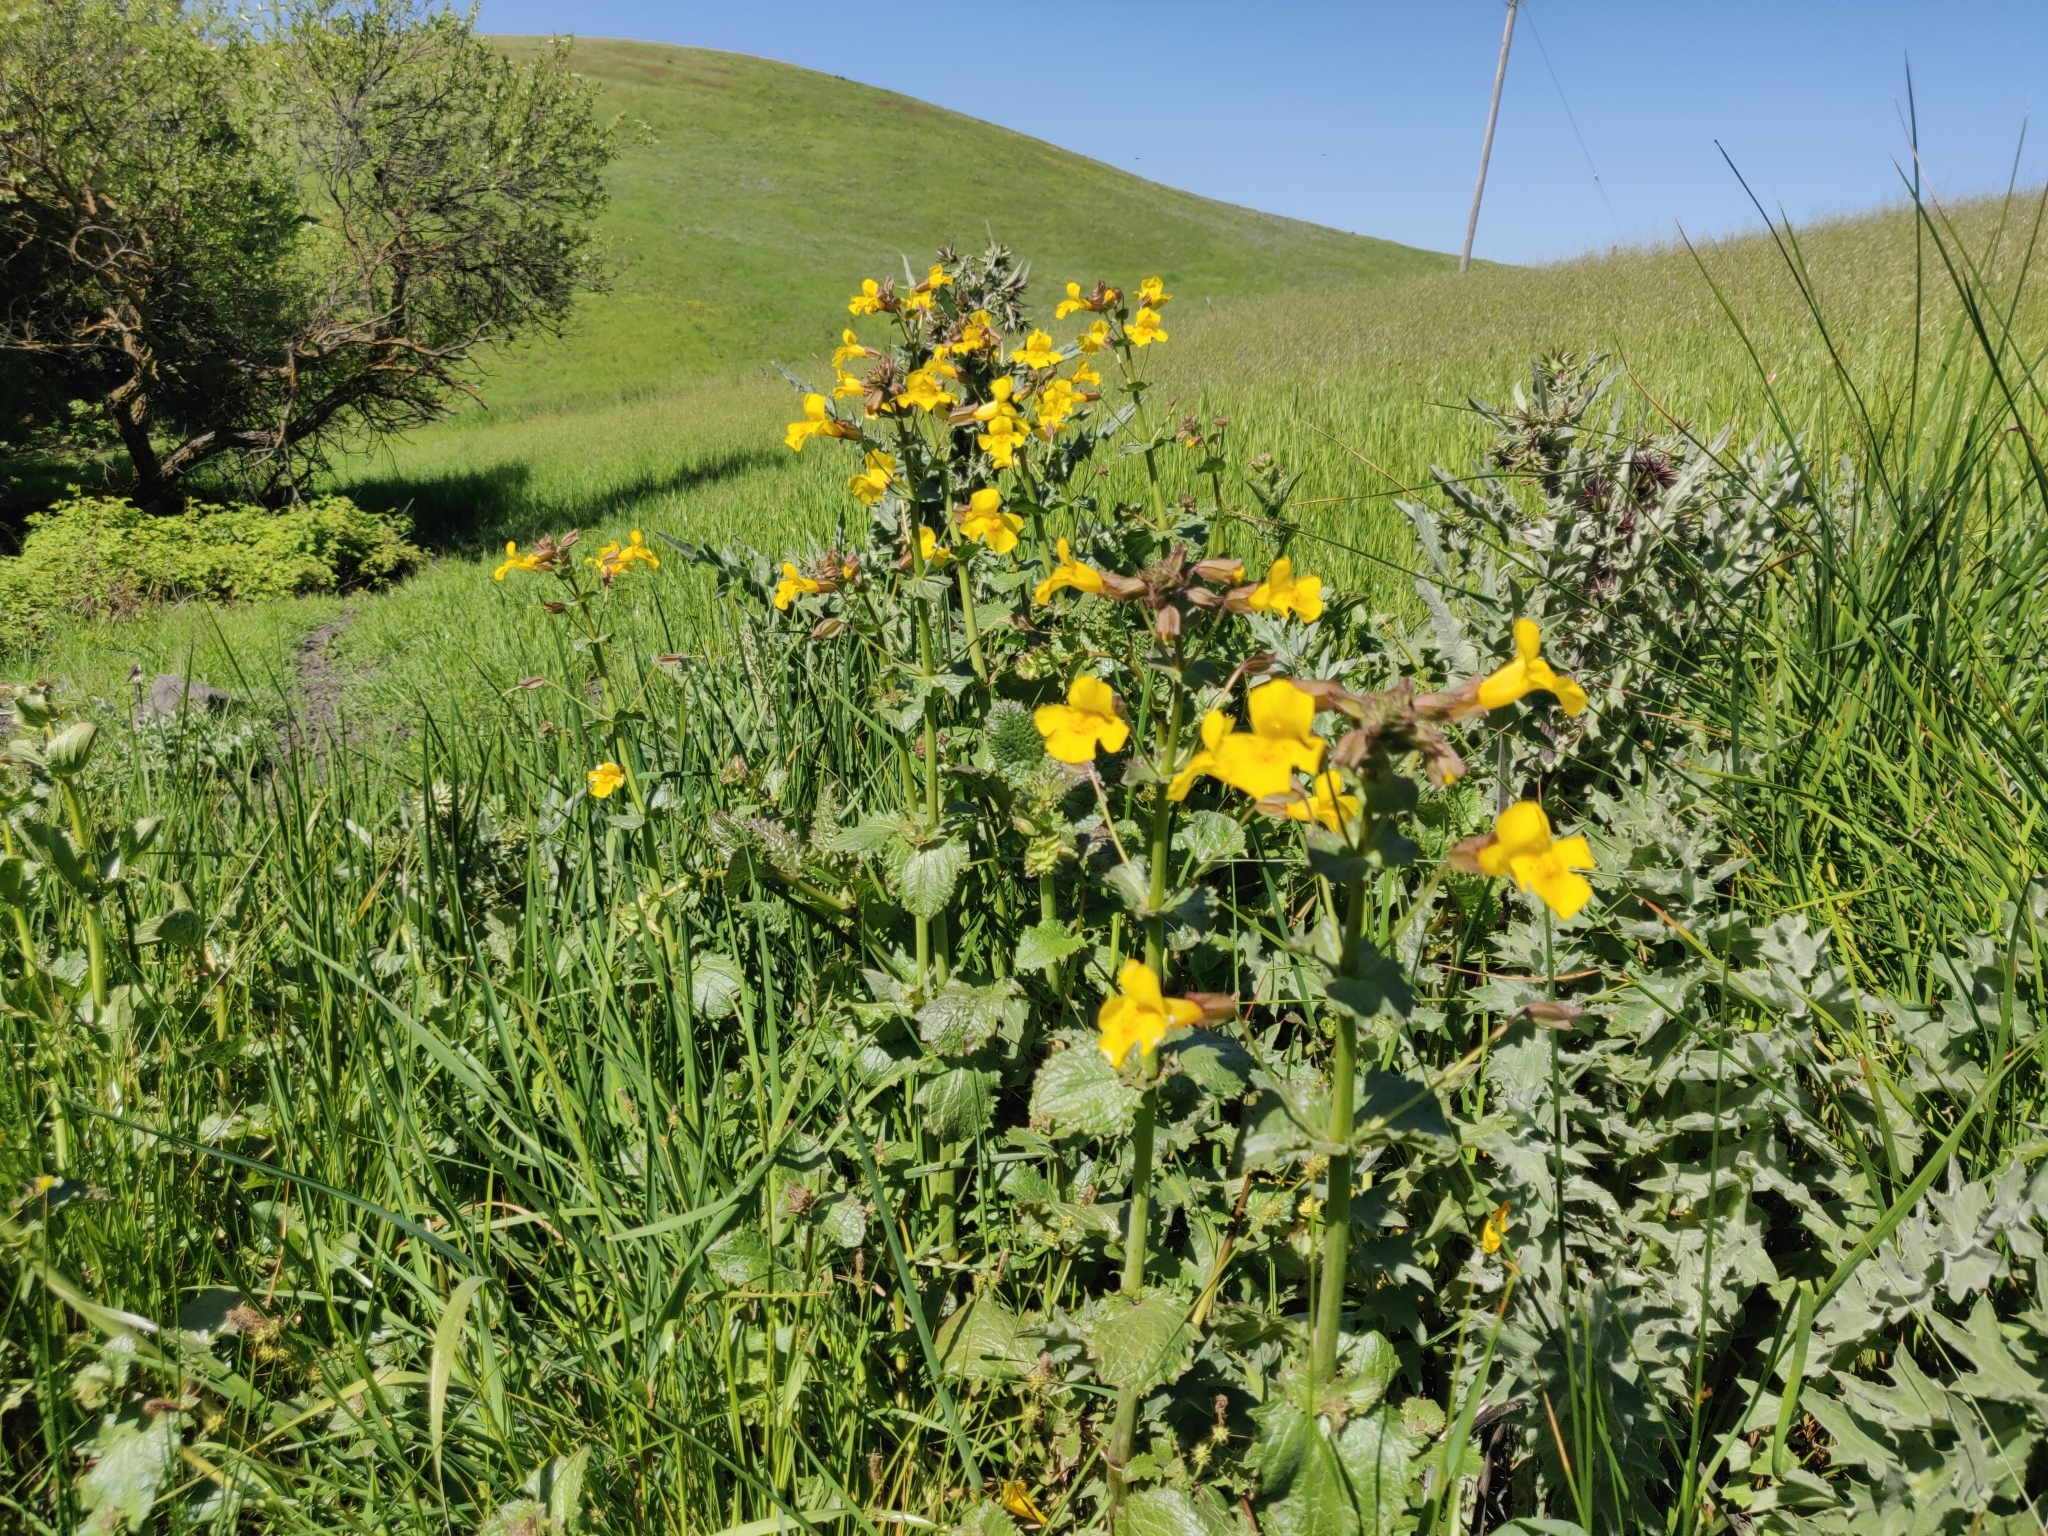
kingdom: Plantae
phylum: Tracheophyta
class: Magnoliopsida
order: Lamiales
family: Phrymaceae
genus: Erythranthe
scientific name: Erythranthe guttata
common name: Monkeyflower
